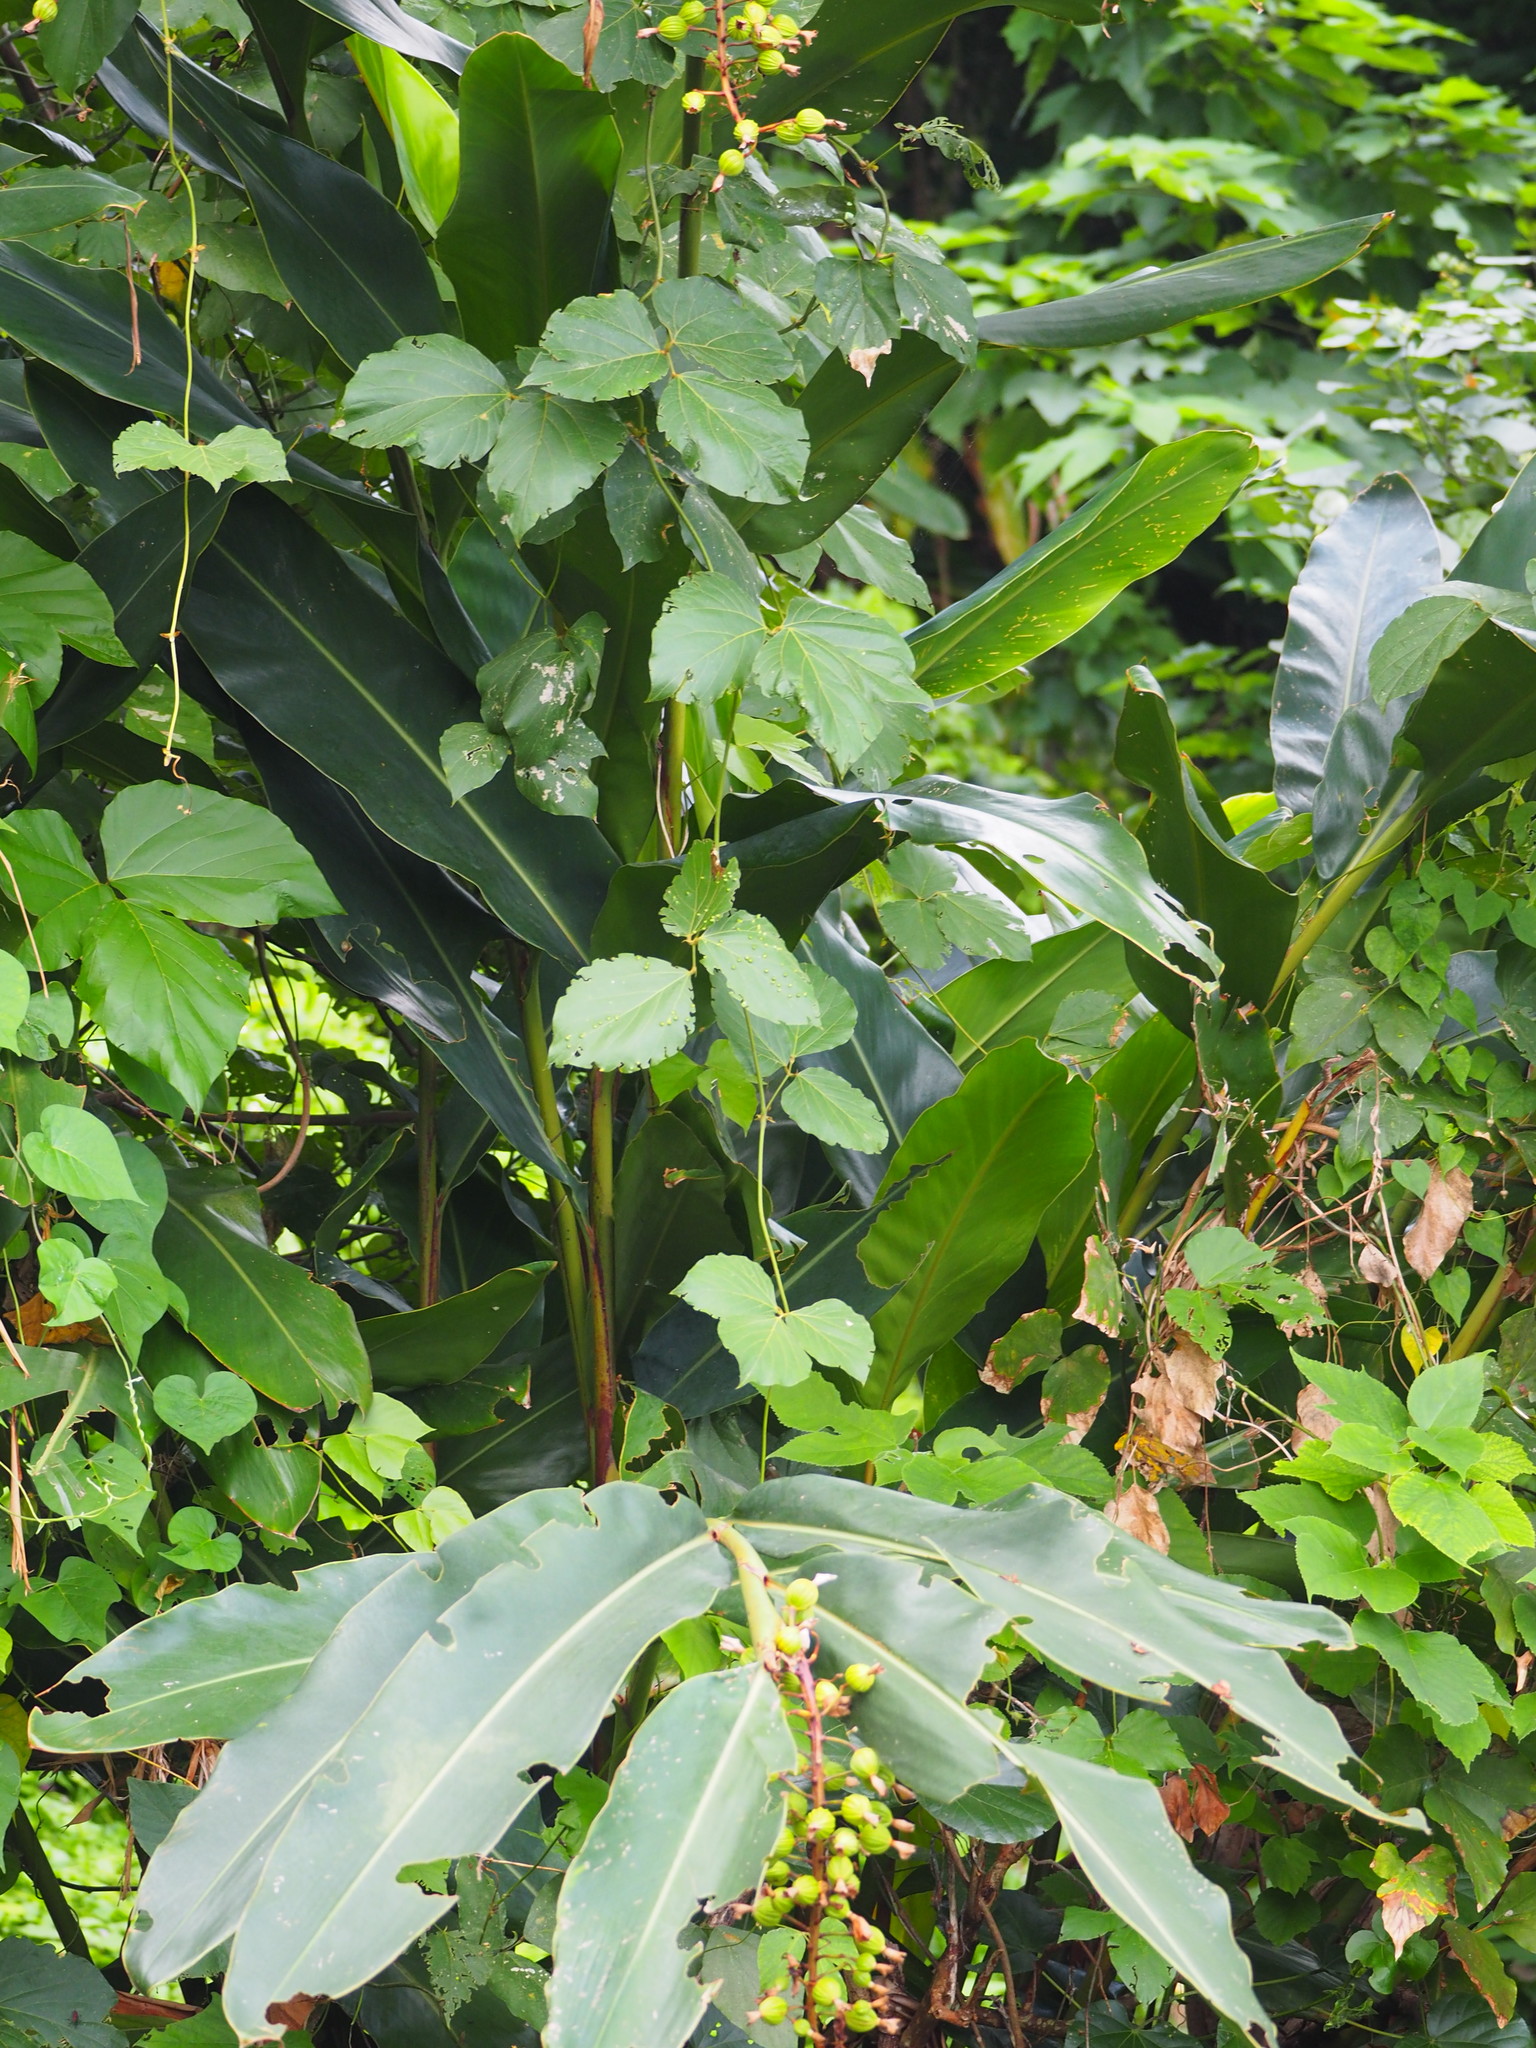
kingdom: Plantae
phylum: Tracheophyta
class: Liliopsida
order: Zingiberales
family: Zingiberaceae
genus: Alpinia
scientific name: Alpinia zerumbet
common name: Shellplant
